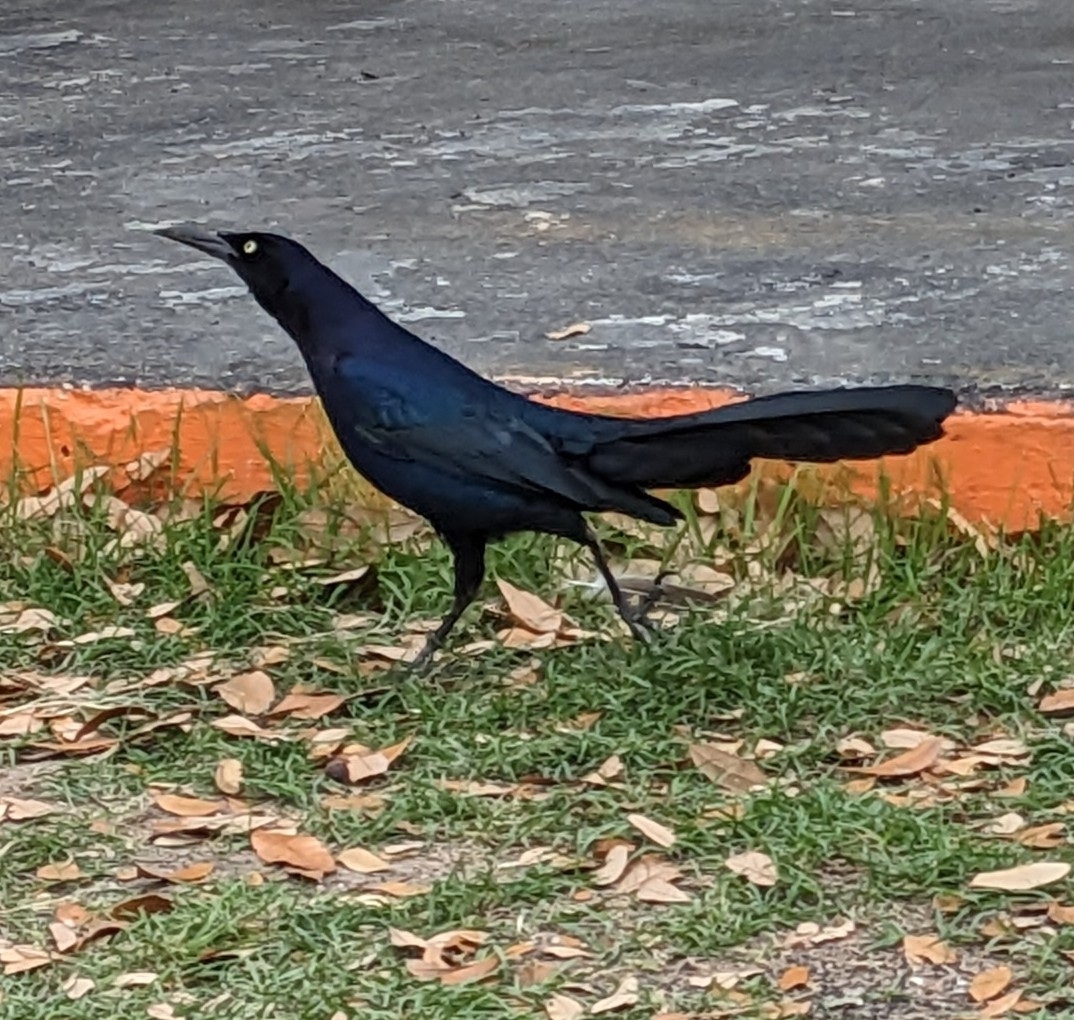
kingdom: Animalia
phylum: Chordata
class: Aves
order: Passeriformes
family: Icteridae
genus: Quiscalus
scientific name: Quiscalus mexicanus
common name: Great-tailed grackle
